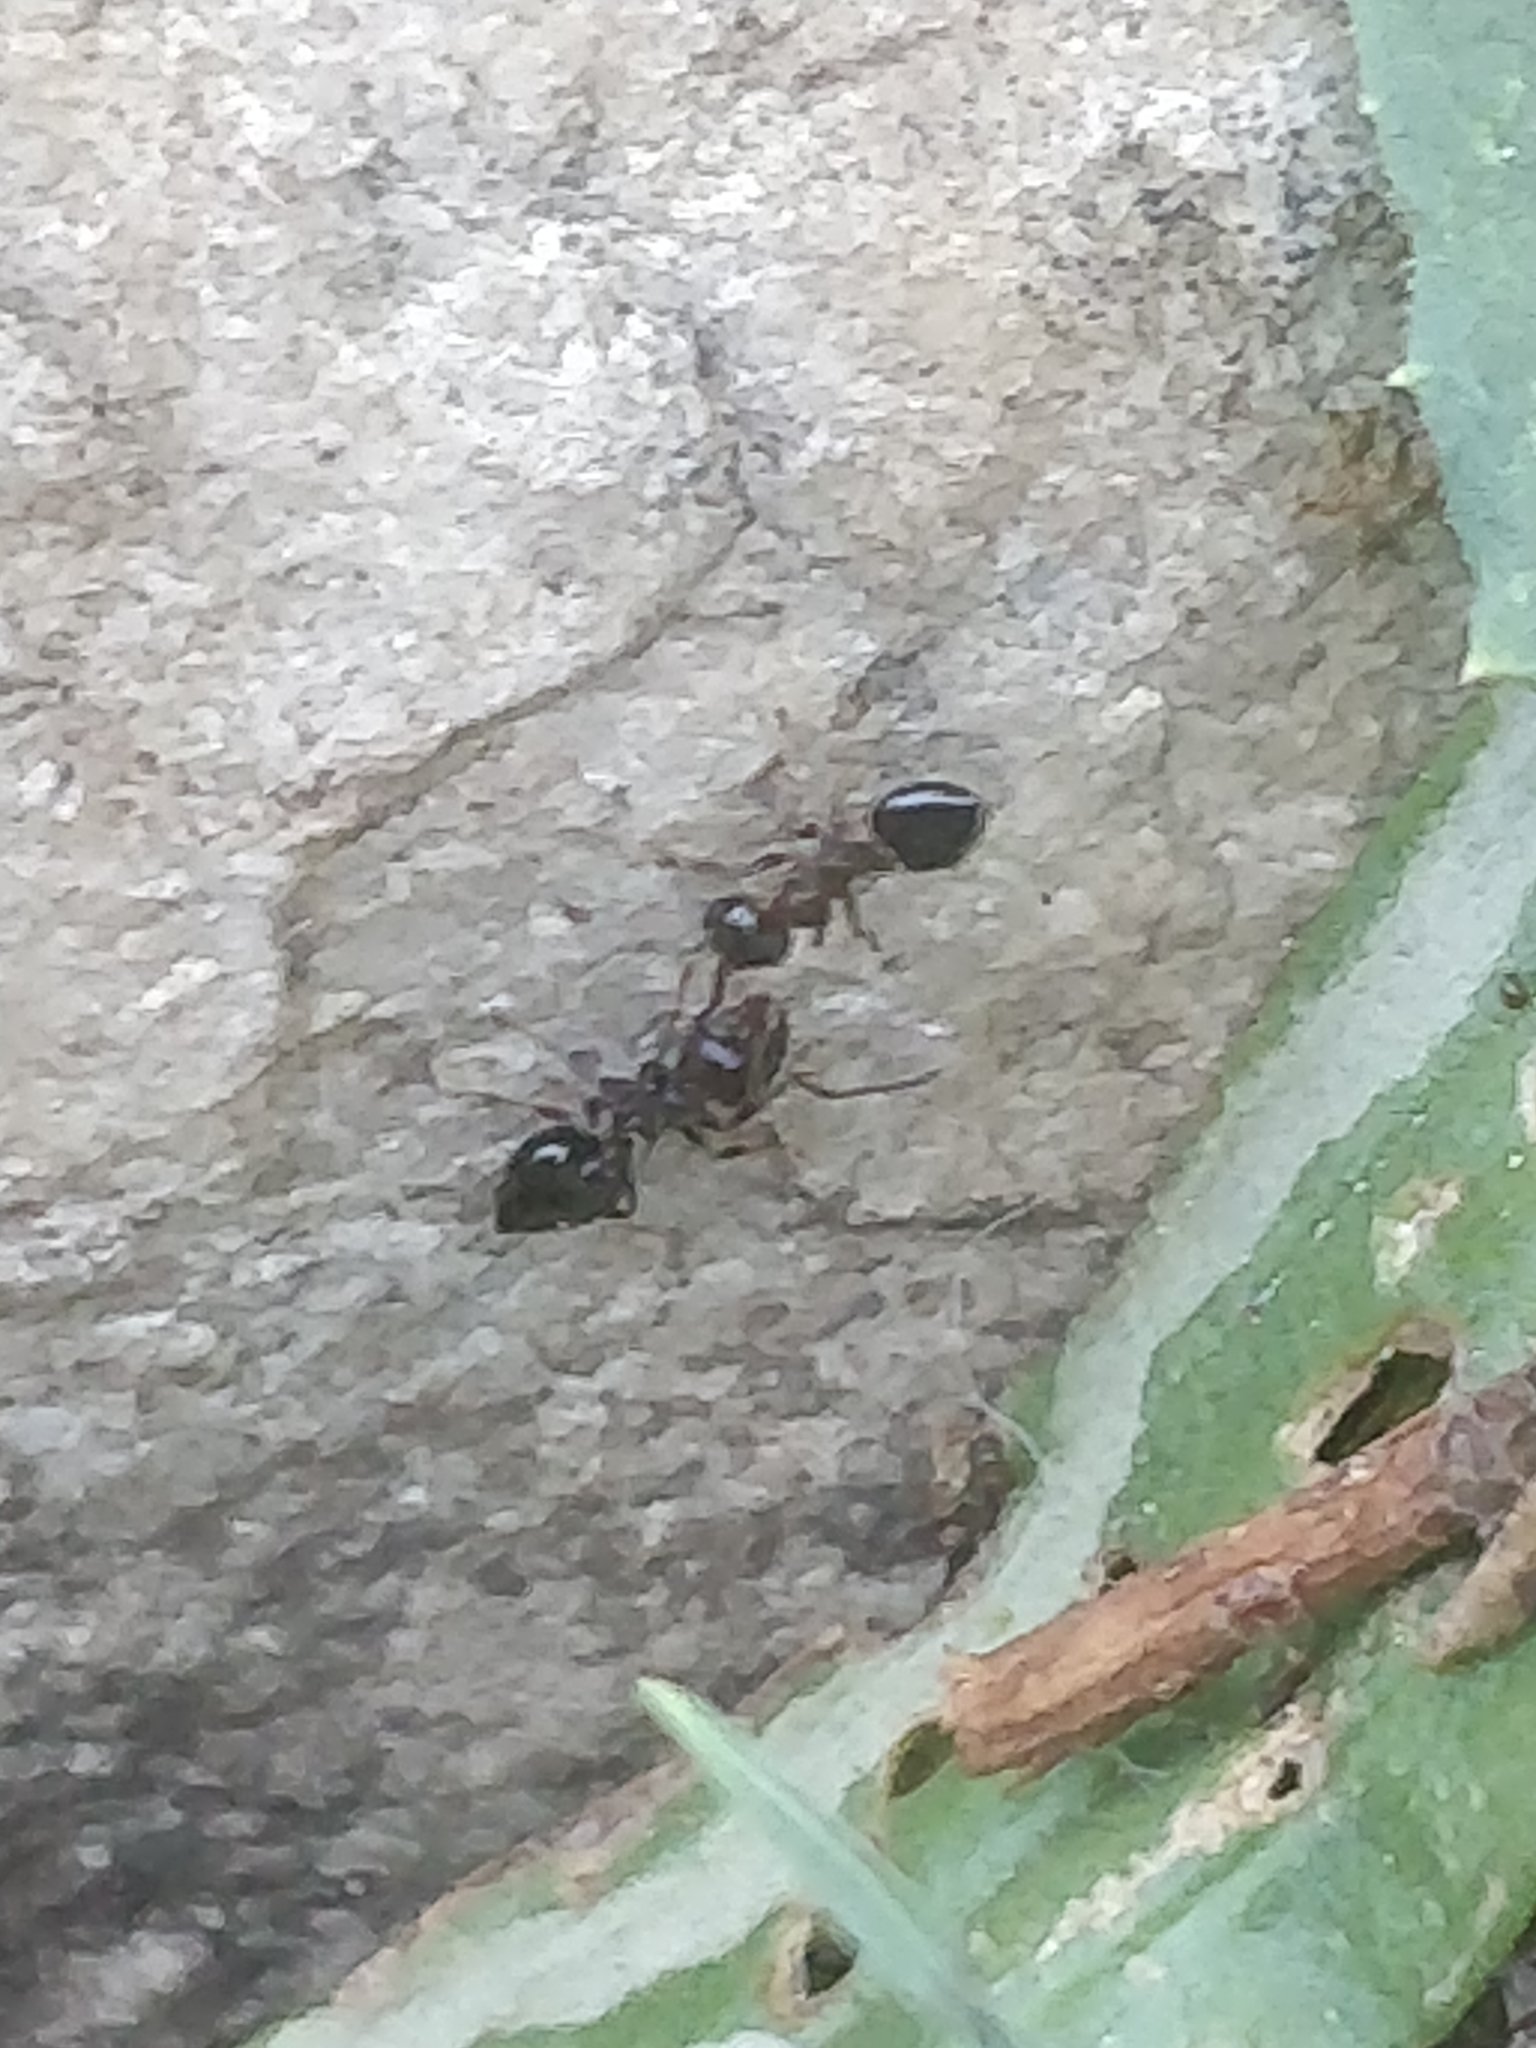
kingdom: Animalia
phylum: Arthropoda
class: Insecta
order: Hymenoptera
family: Formicidae
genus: Crematogaster
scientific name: Crematogaster cerasi
